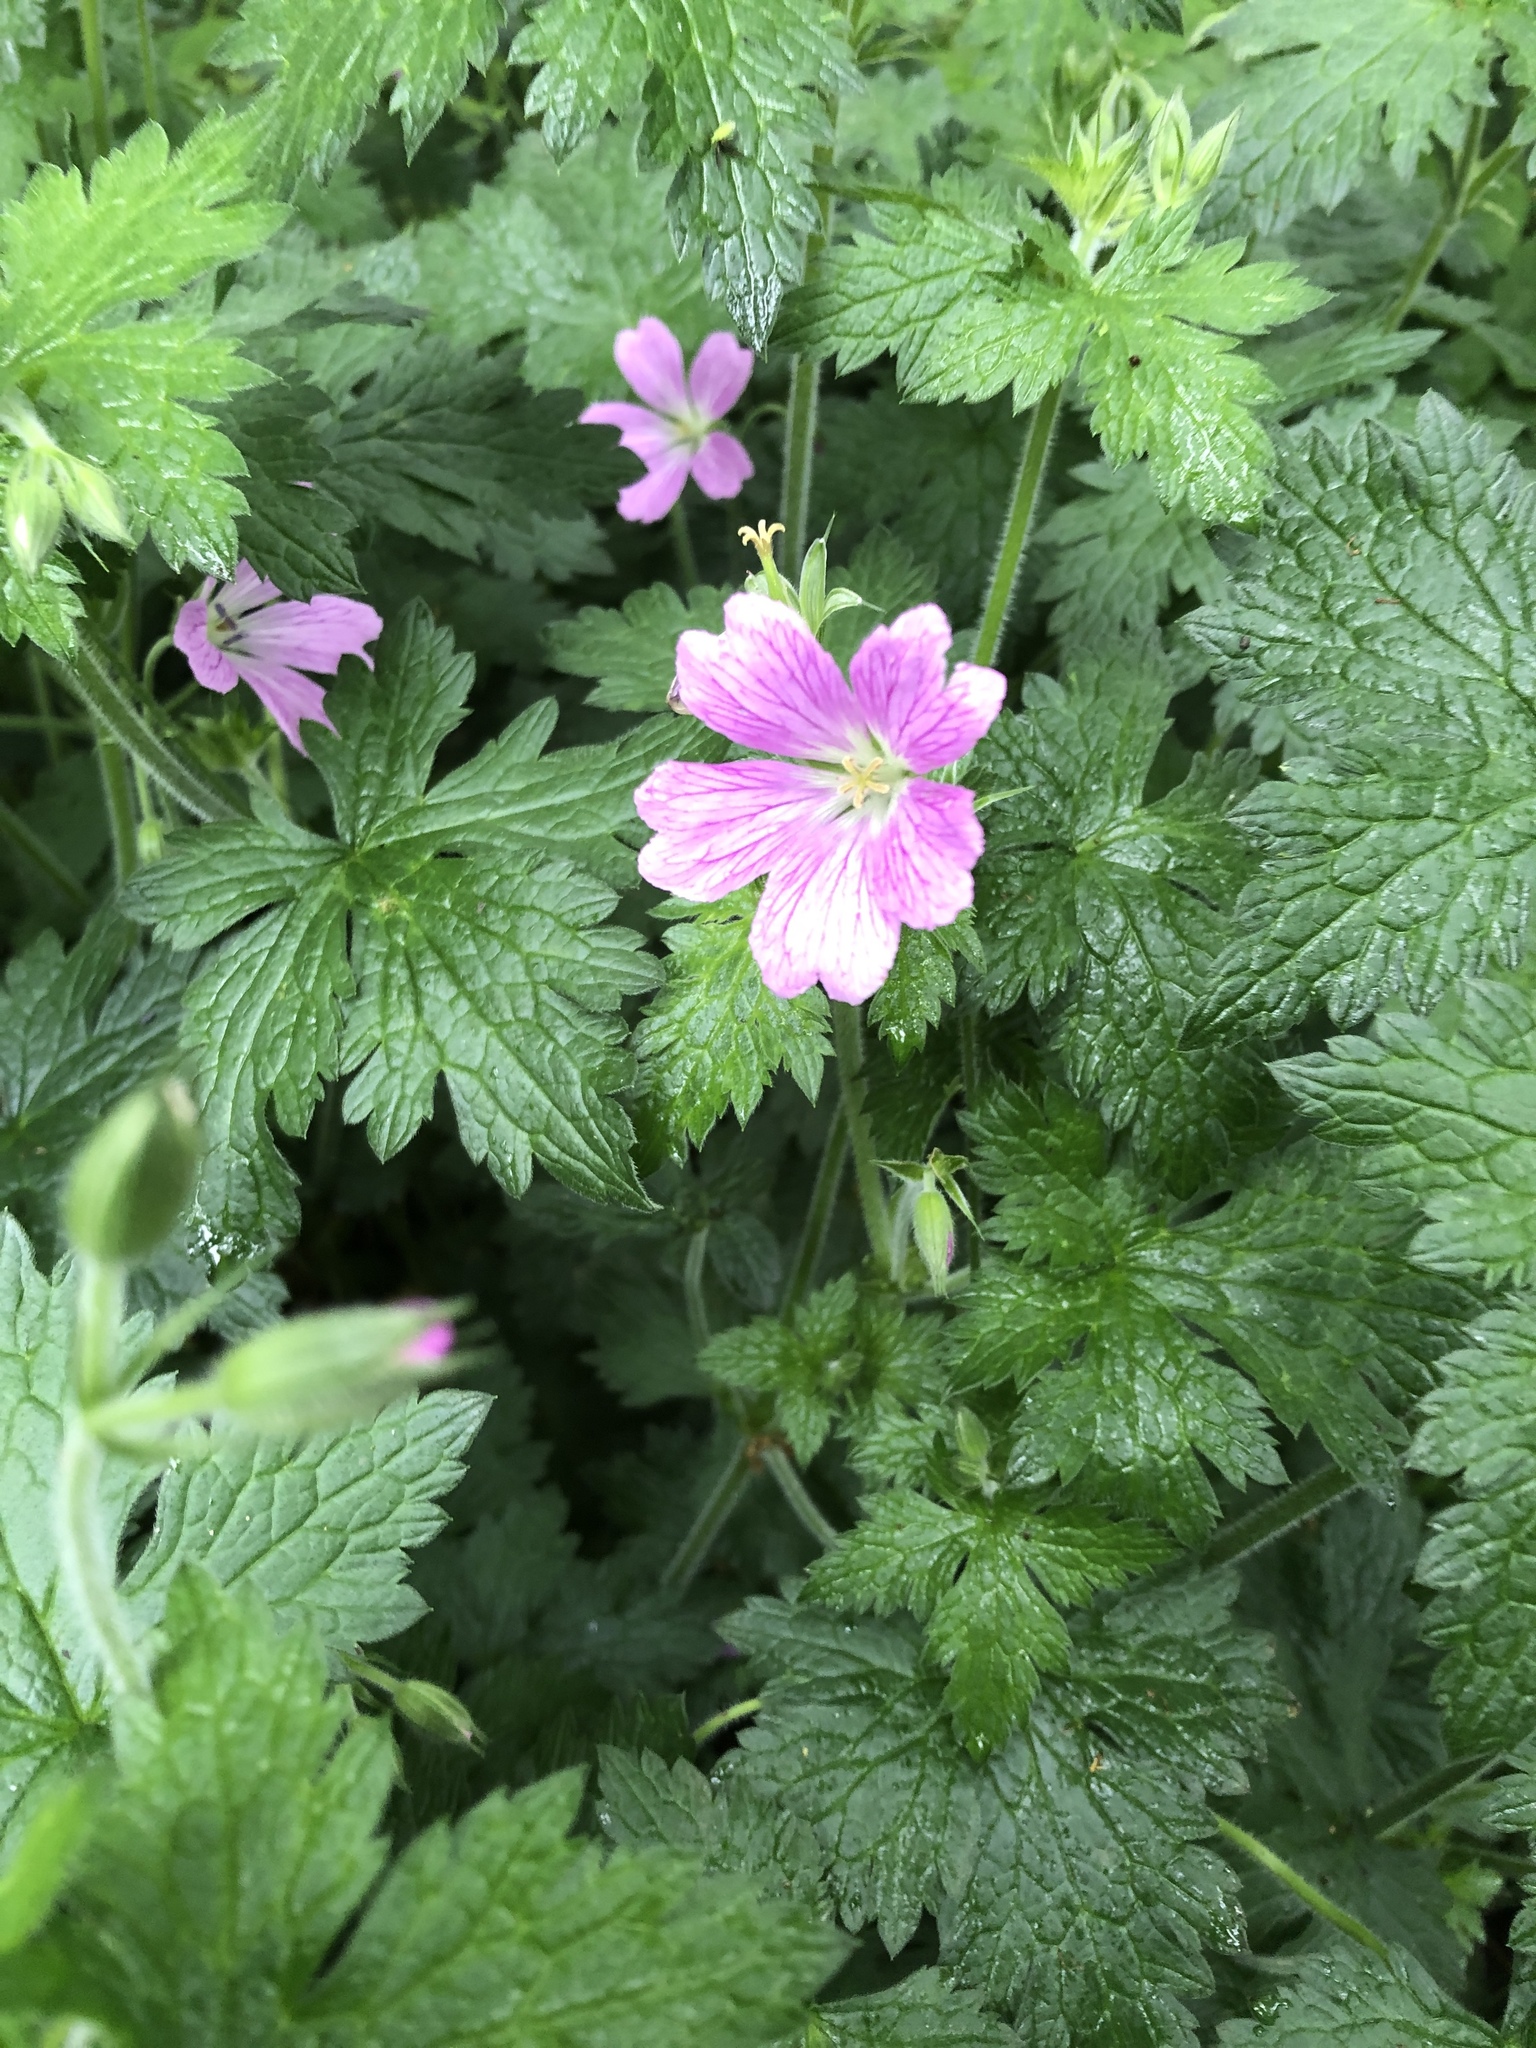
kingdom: Plantae
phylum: Tracheophyta
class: Magnoliopsida
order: Geraniales
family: Geraniaceae
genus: Geranium
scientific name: Geranium oxonianum
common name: Druce's crane's-bill
